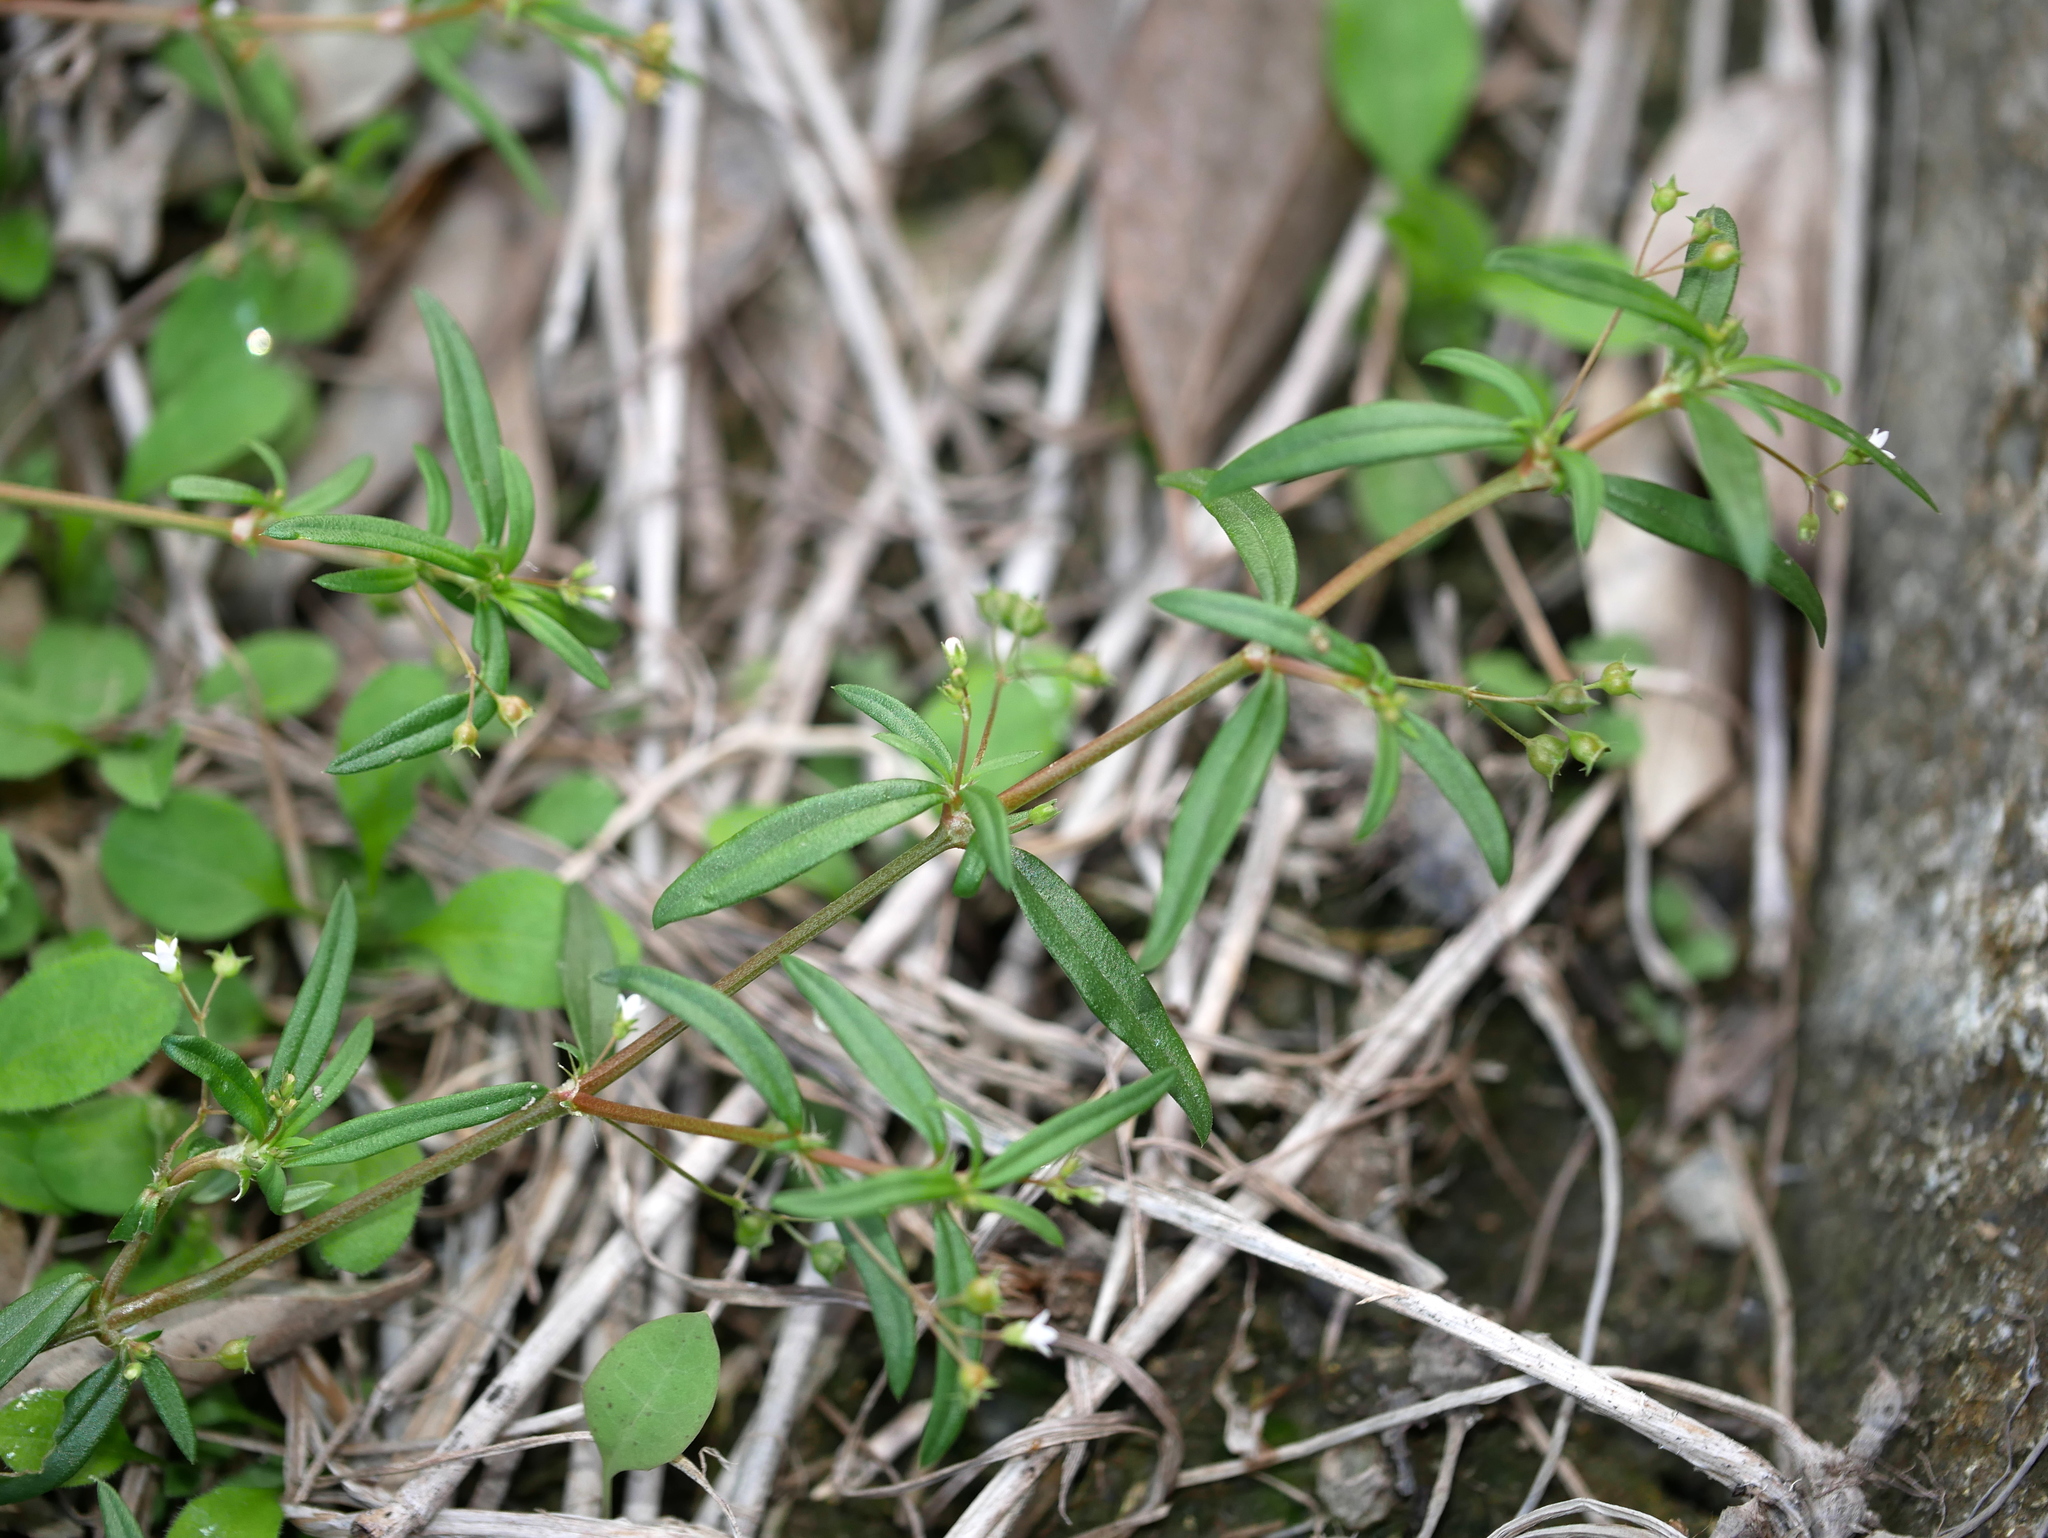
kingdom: Plantae
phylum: Tracheophyta
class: Magnoliopsida
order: Gentianales
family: Rubiaceae
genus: Oldenlandia
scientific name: Oldenlandia corymbosa
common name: Flat-top mille graines
